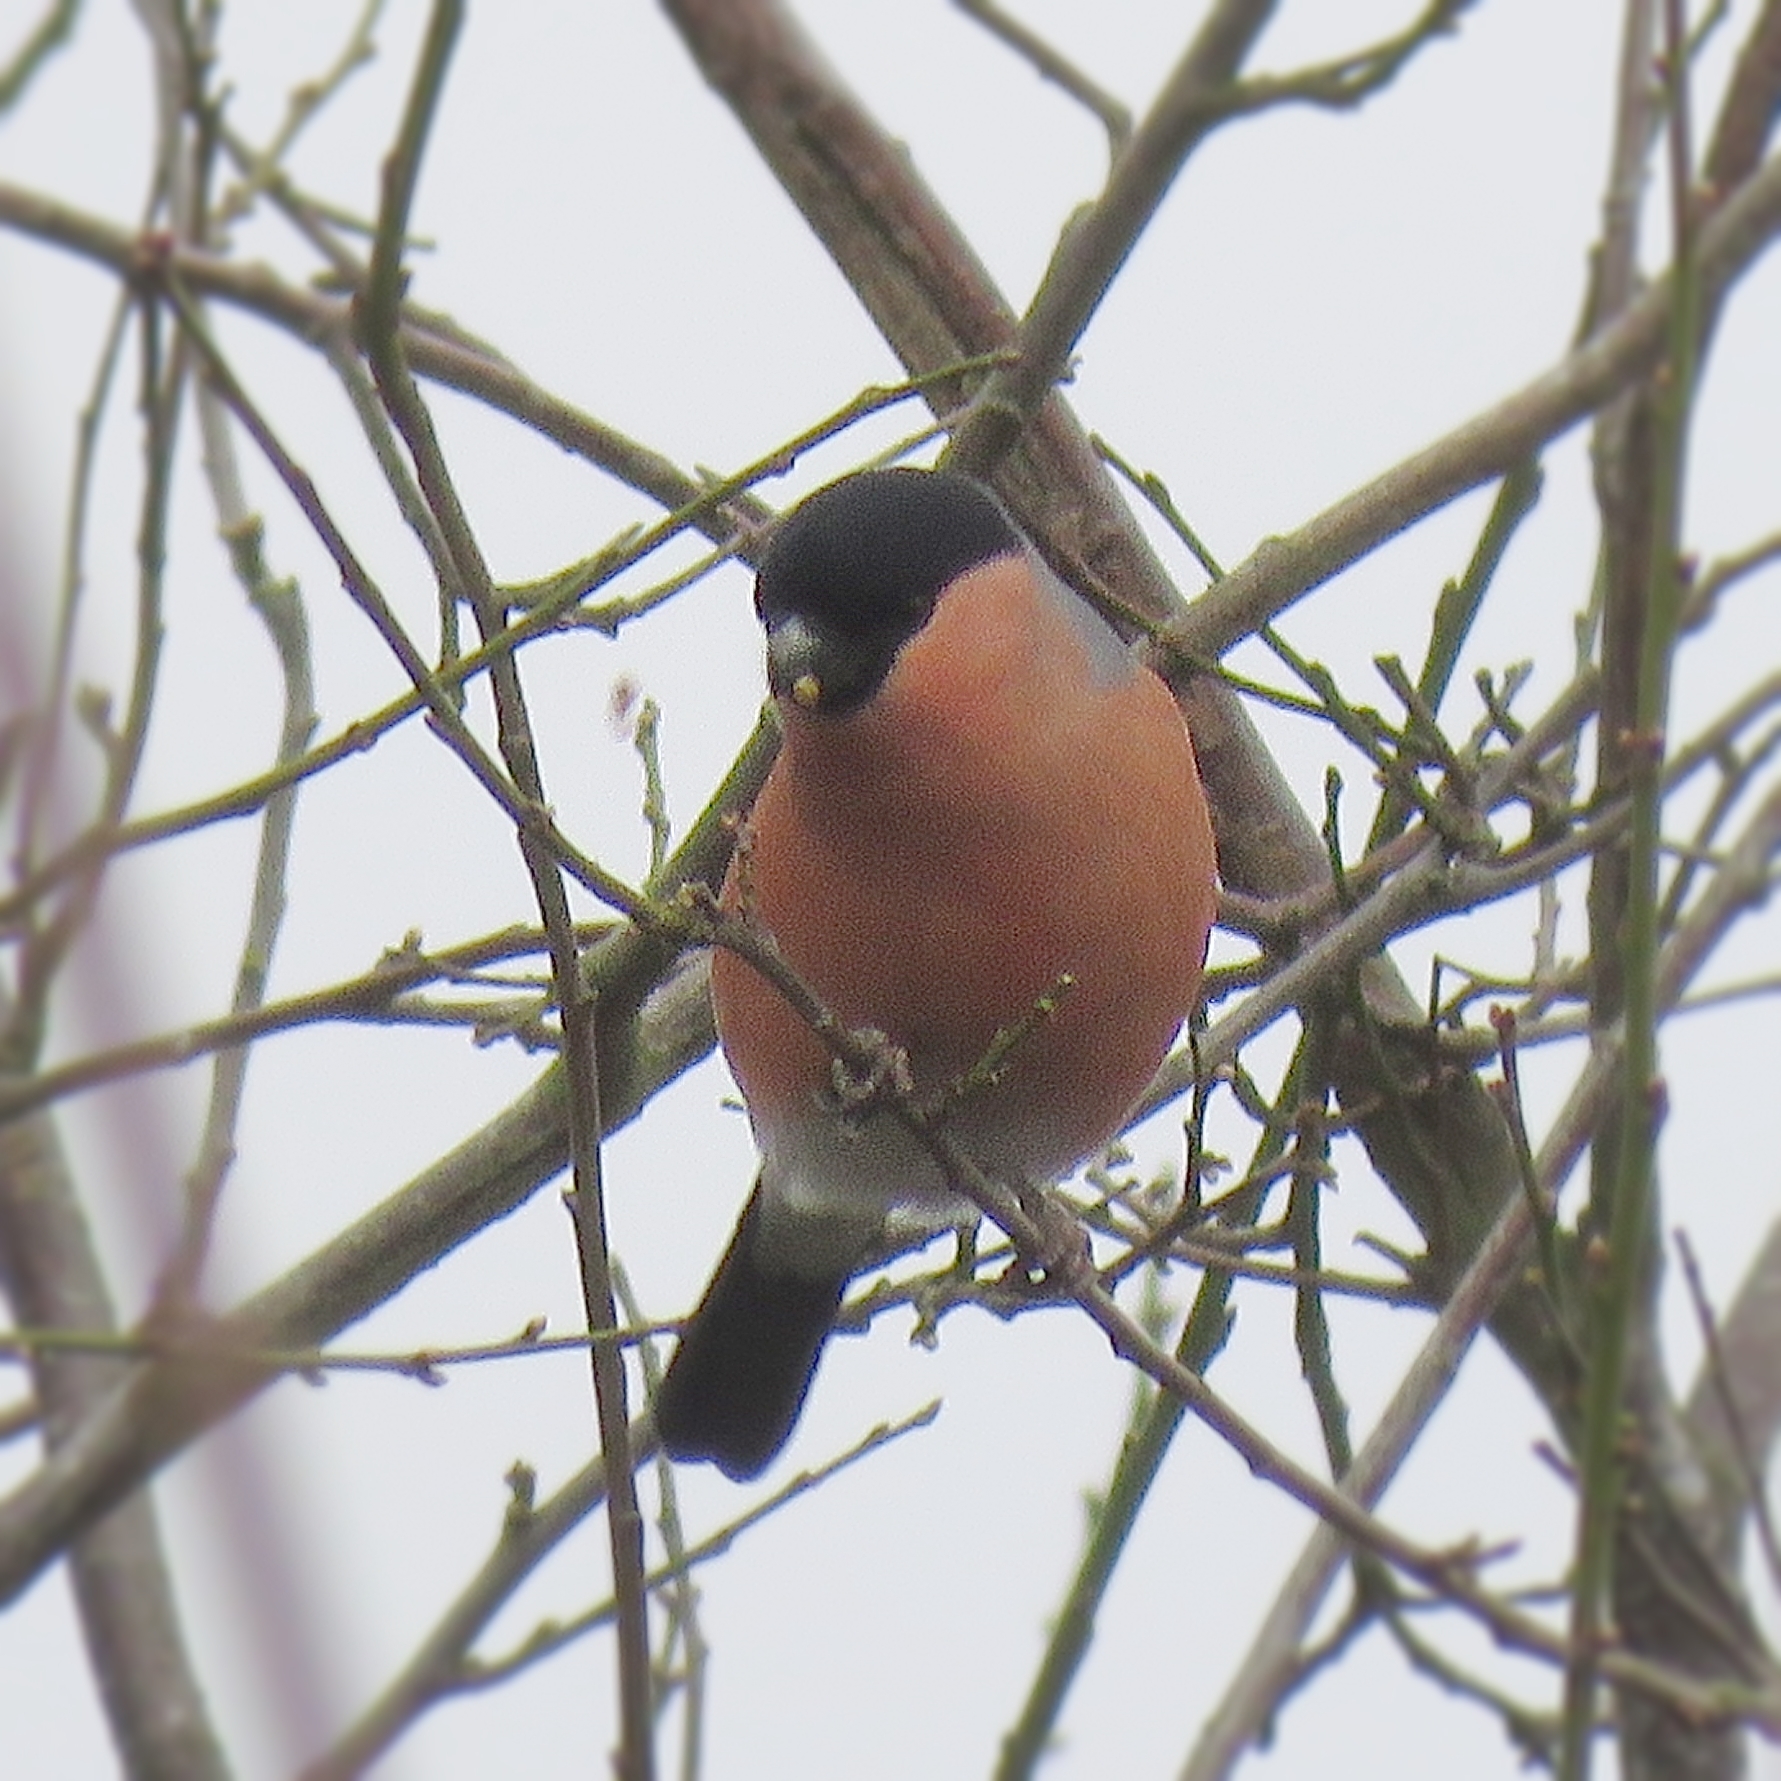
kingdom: Animalia
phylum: Chordata
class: Aves
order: Passeriformes
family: Fringillidae
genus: Pyrrhula
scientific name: Pyrrhula pyrrhula
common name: Eurasian bullfinch
